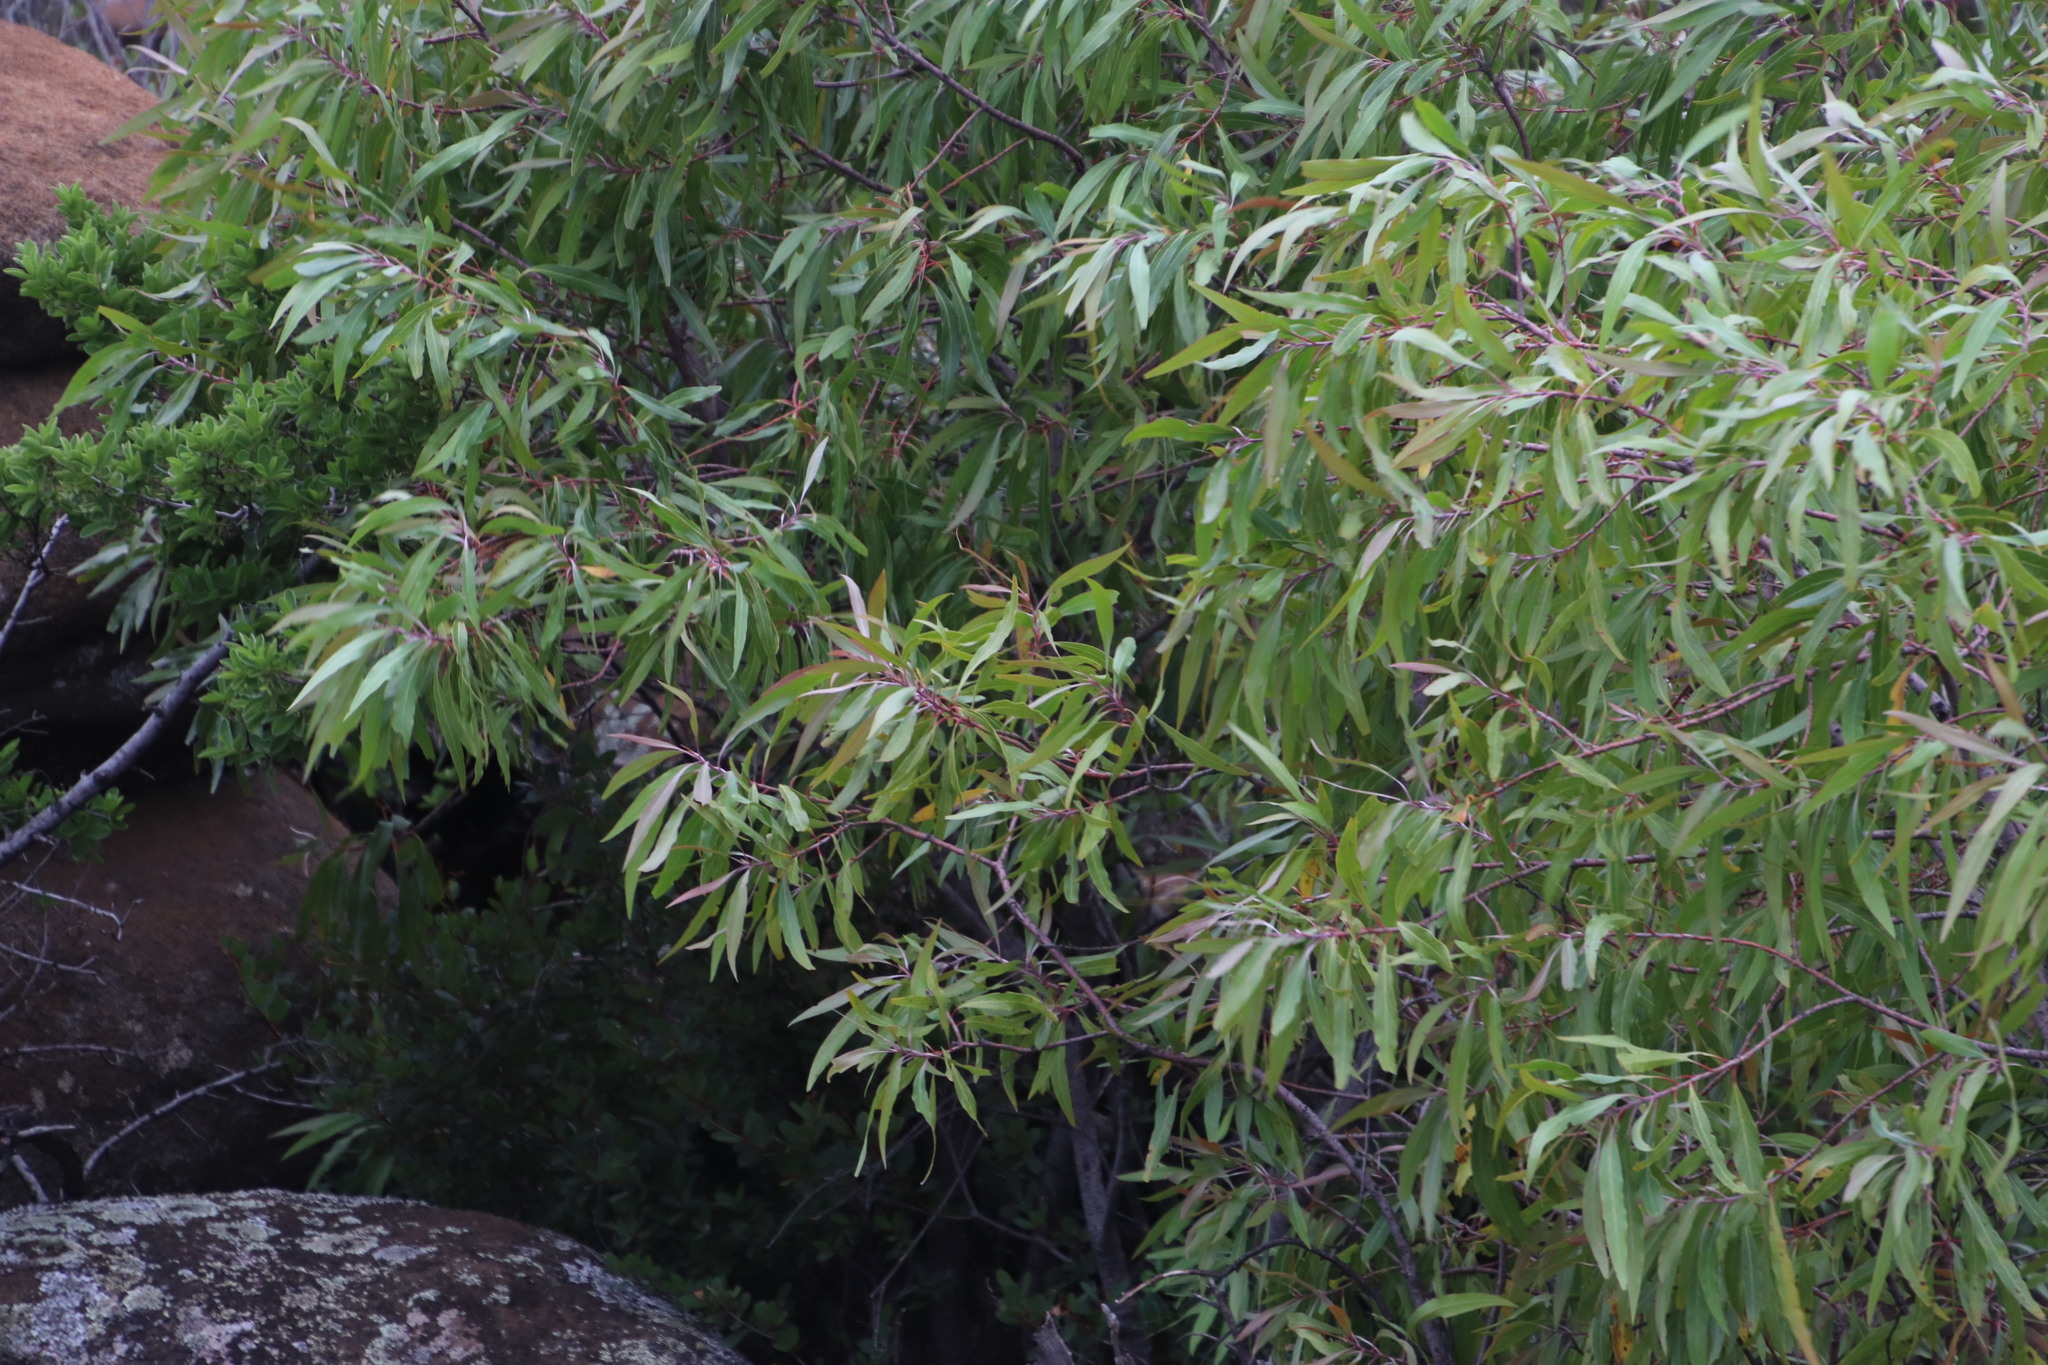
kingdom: Plantae
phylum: Tracheophyta
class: Magnoliopsida
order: Proteales
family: Proteaceae
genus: Faurea
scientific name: Faurea saligna
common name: African bean
